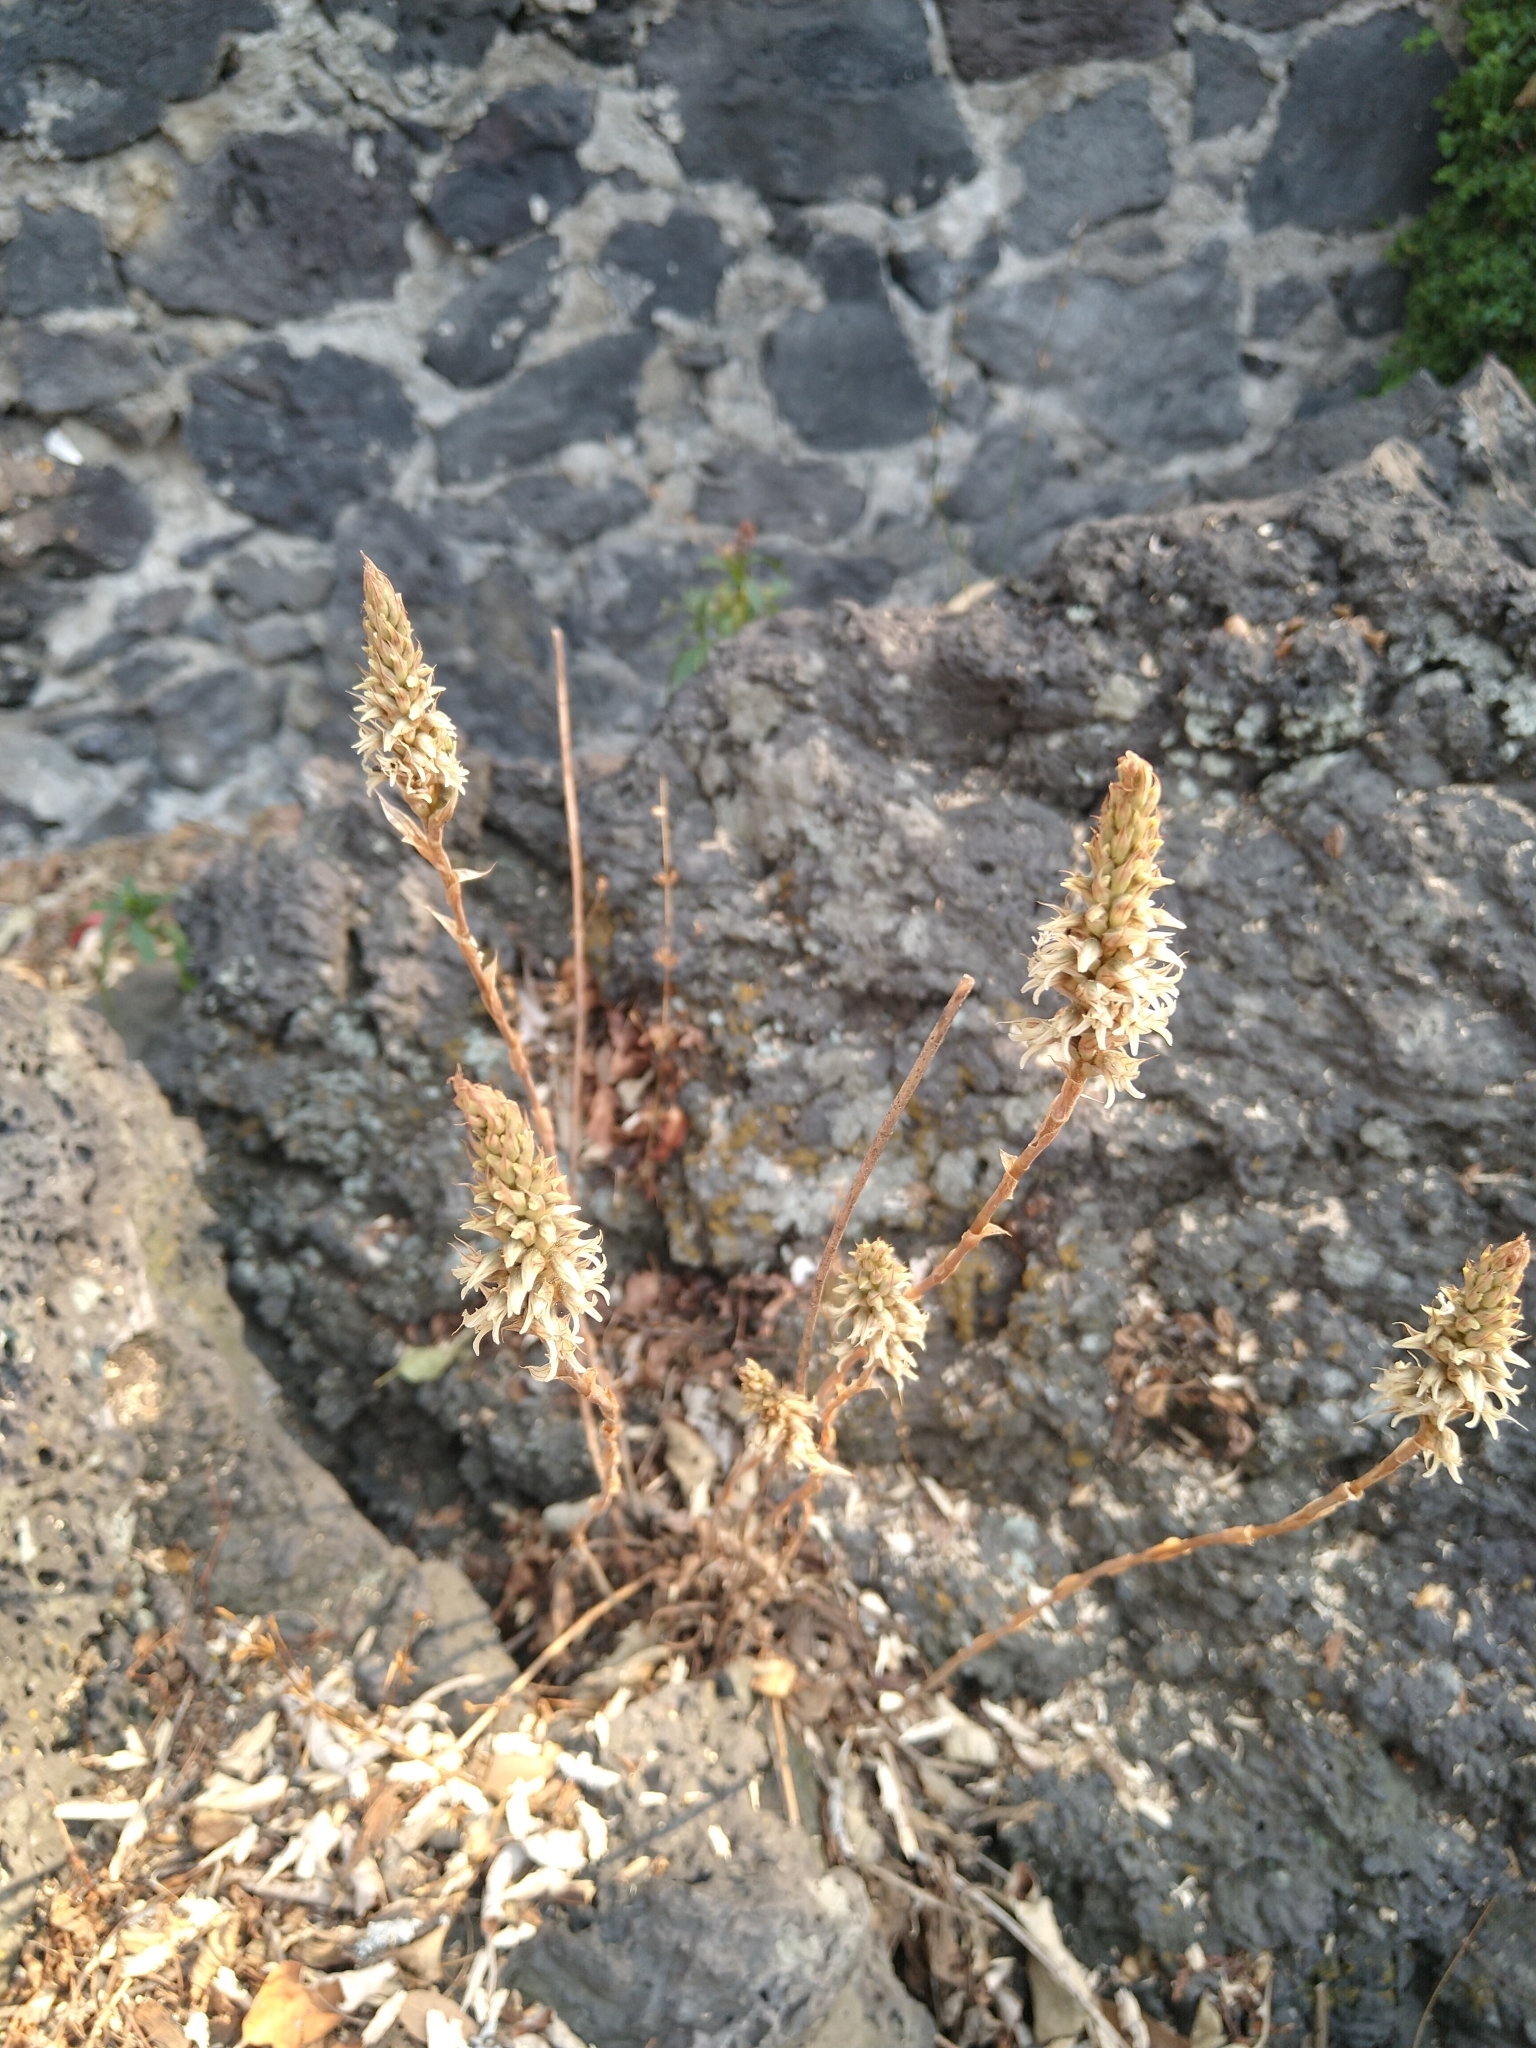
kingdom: Plantae
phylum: Tracheophyta
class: Liliopsida
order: Asparagales
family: Orchidaceae
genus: Aulosepalum
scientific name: Aulosepalum pyramidale
